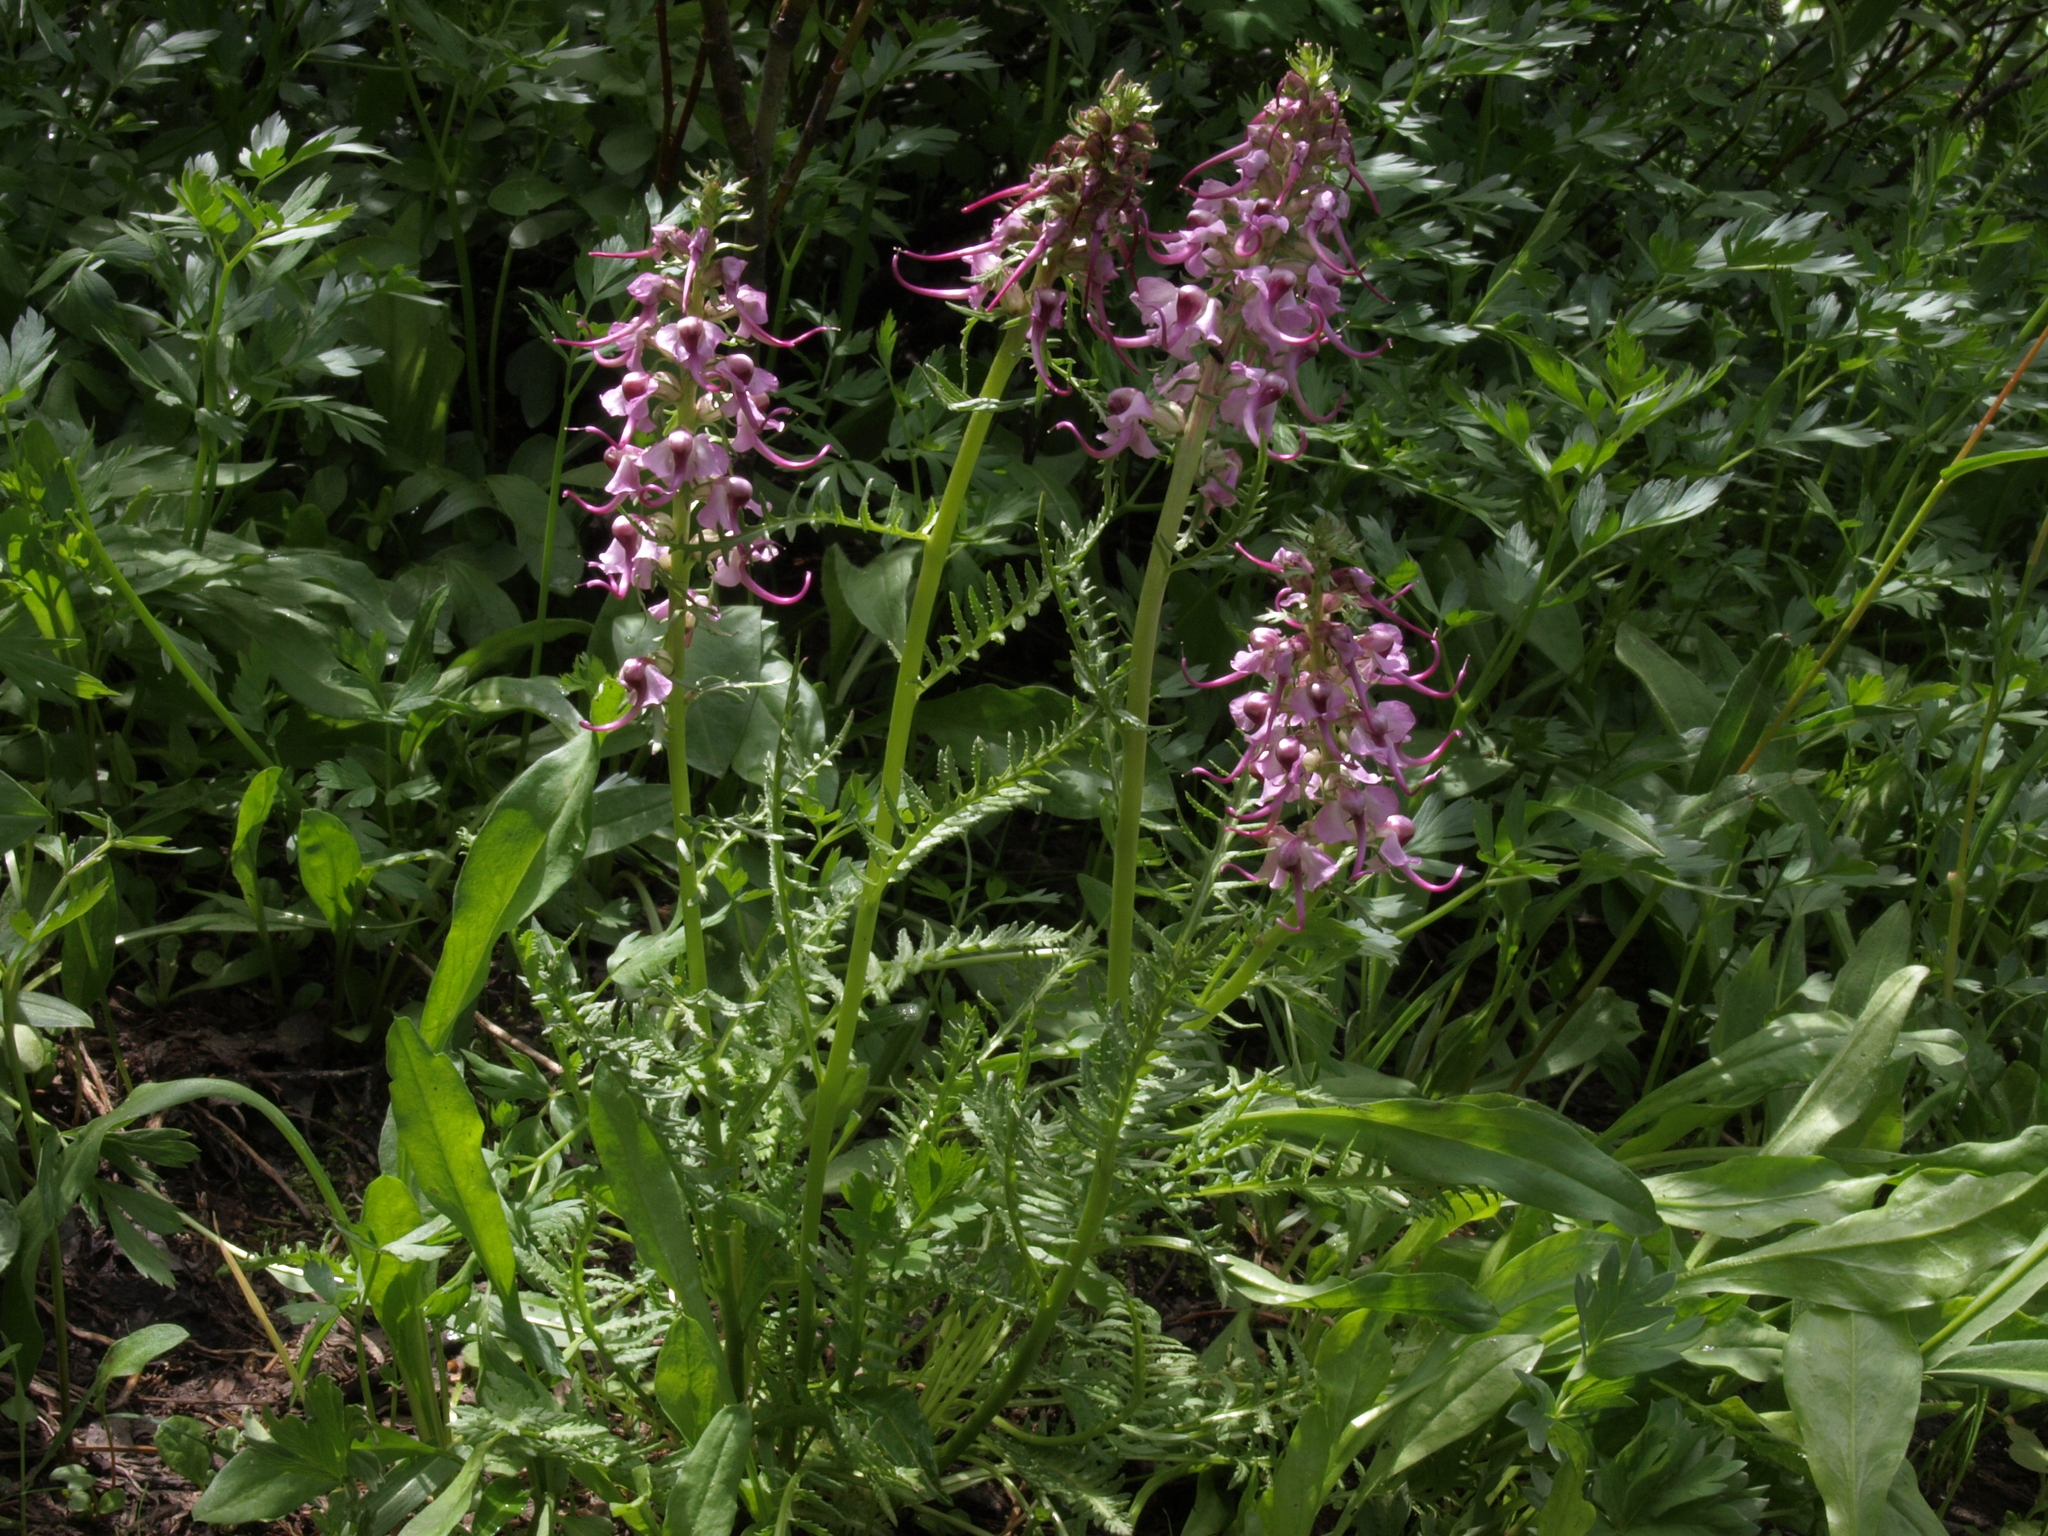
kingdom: Plantae
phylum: Tracheophyta
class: Magnoliopsida
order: Lamiales
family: Orobanchaceae
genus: Pedicularis
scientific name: Pedicularis groenlandica
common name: Elephant's-head
